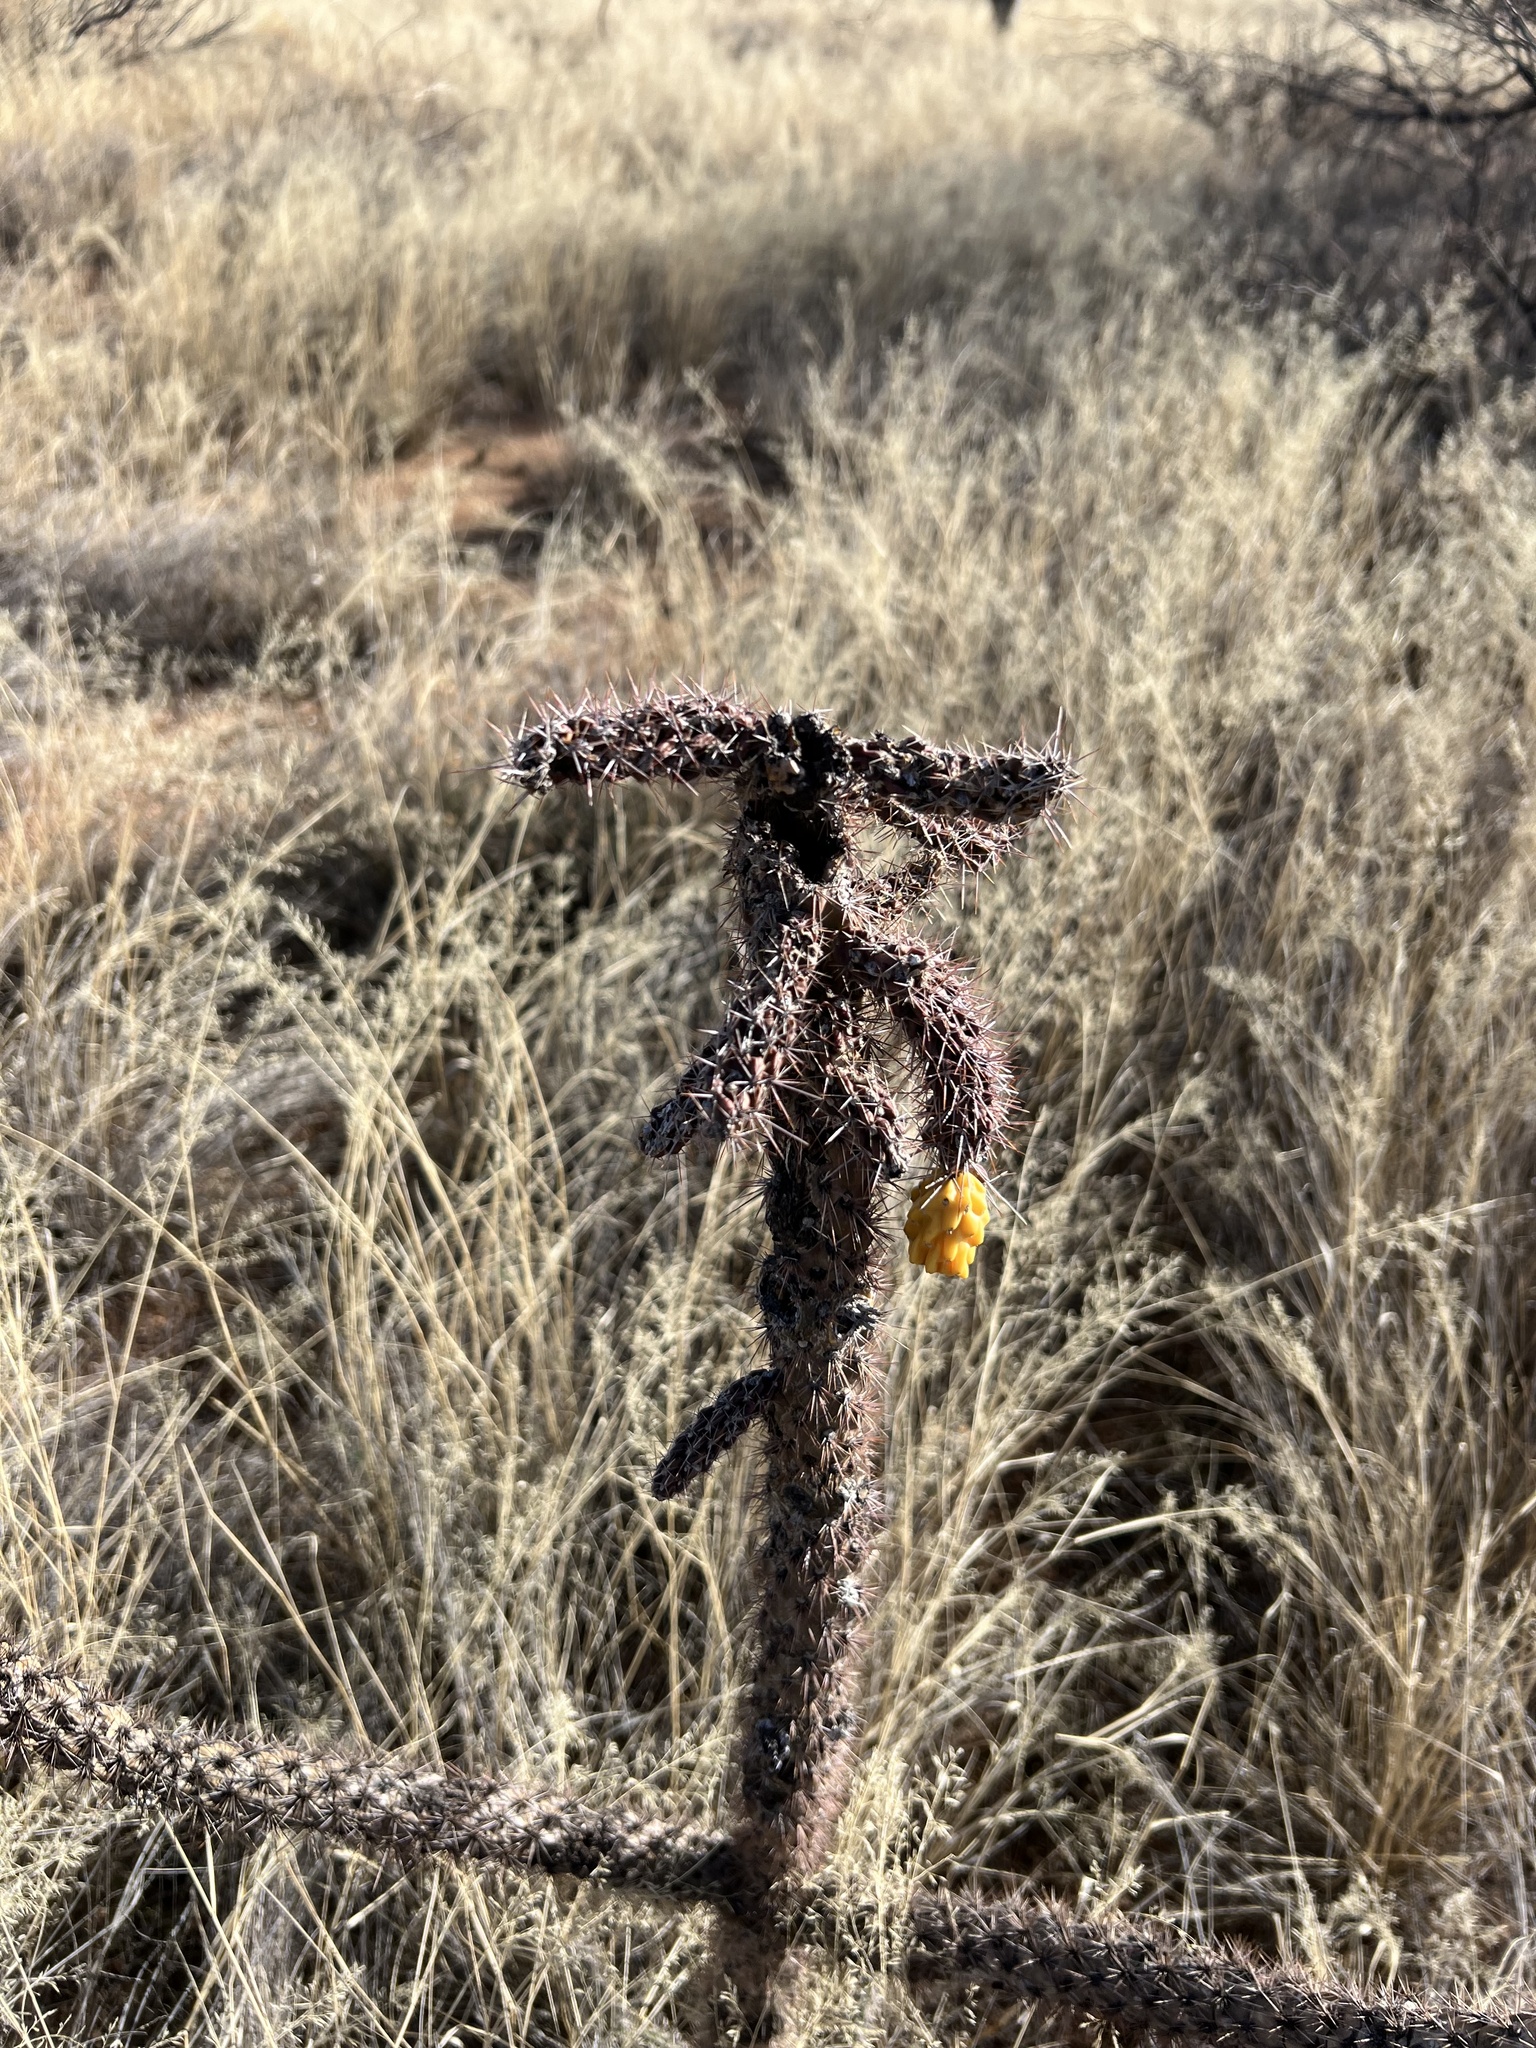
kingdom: Plantae
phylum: Tracheophyta
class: Magnoliopsida
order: Caryophyllales
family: Cactaceae
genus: Cylindropuntia
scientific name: Cylindropuntia imbricata
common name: Candelabrum cactus
